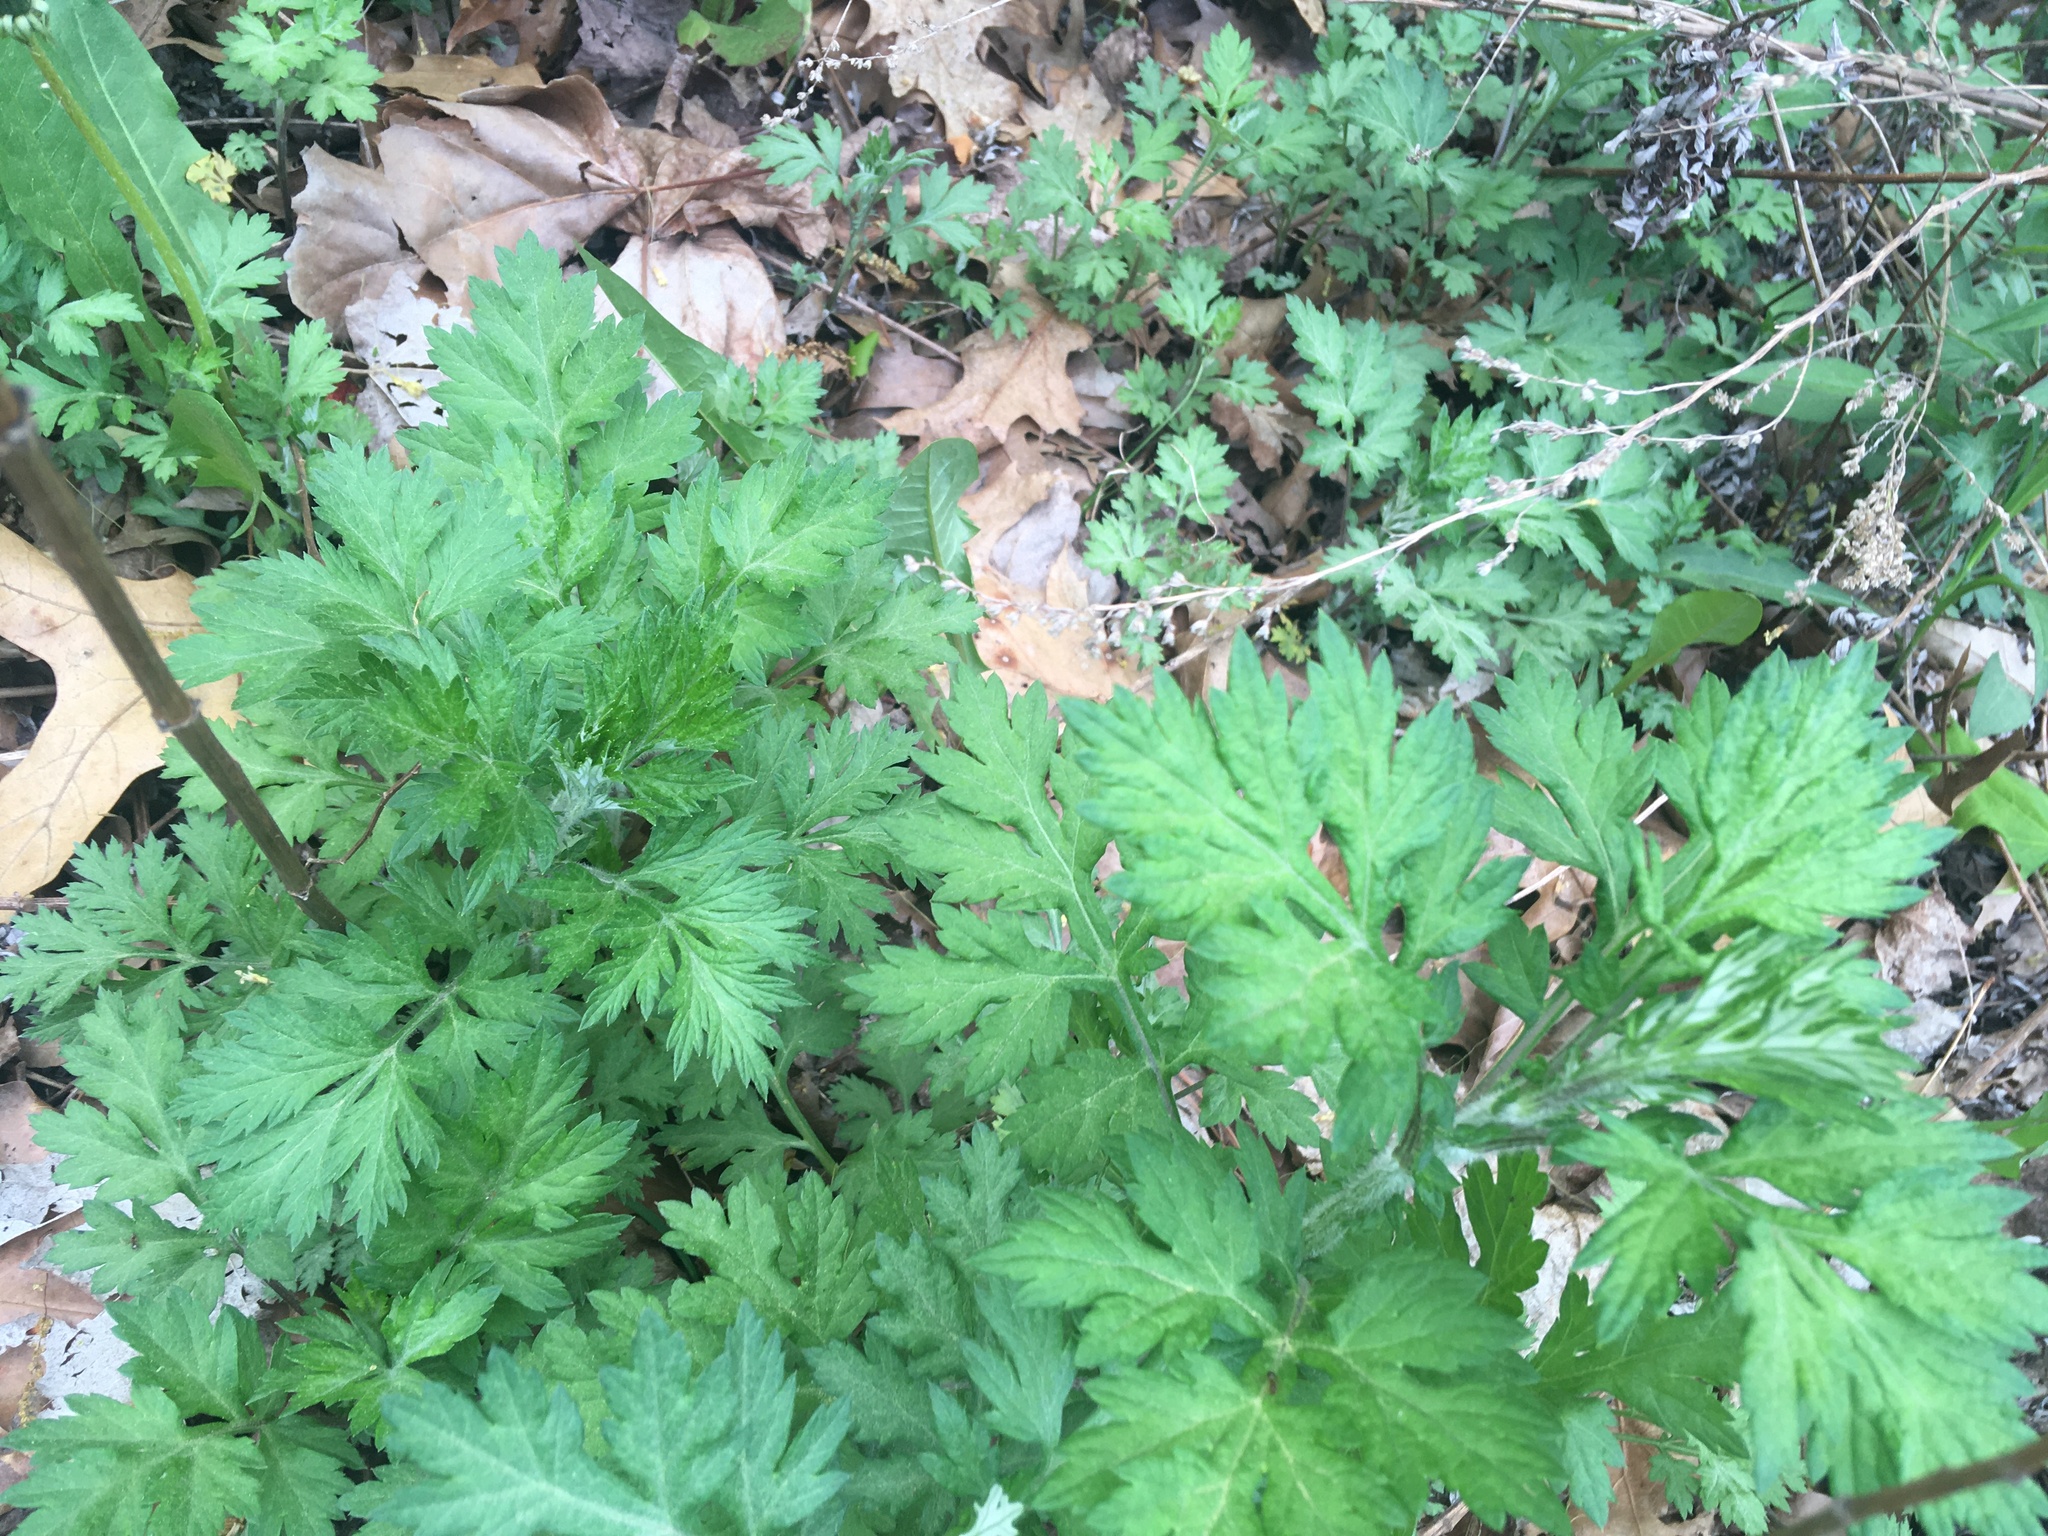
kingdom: Plantae
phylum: Tracheophyta
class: Magnoliopsida
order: Asterales
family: Asteraceae
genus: Artemisia
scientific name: Artemisia vulgaris
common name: Mugwort
